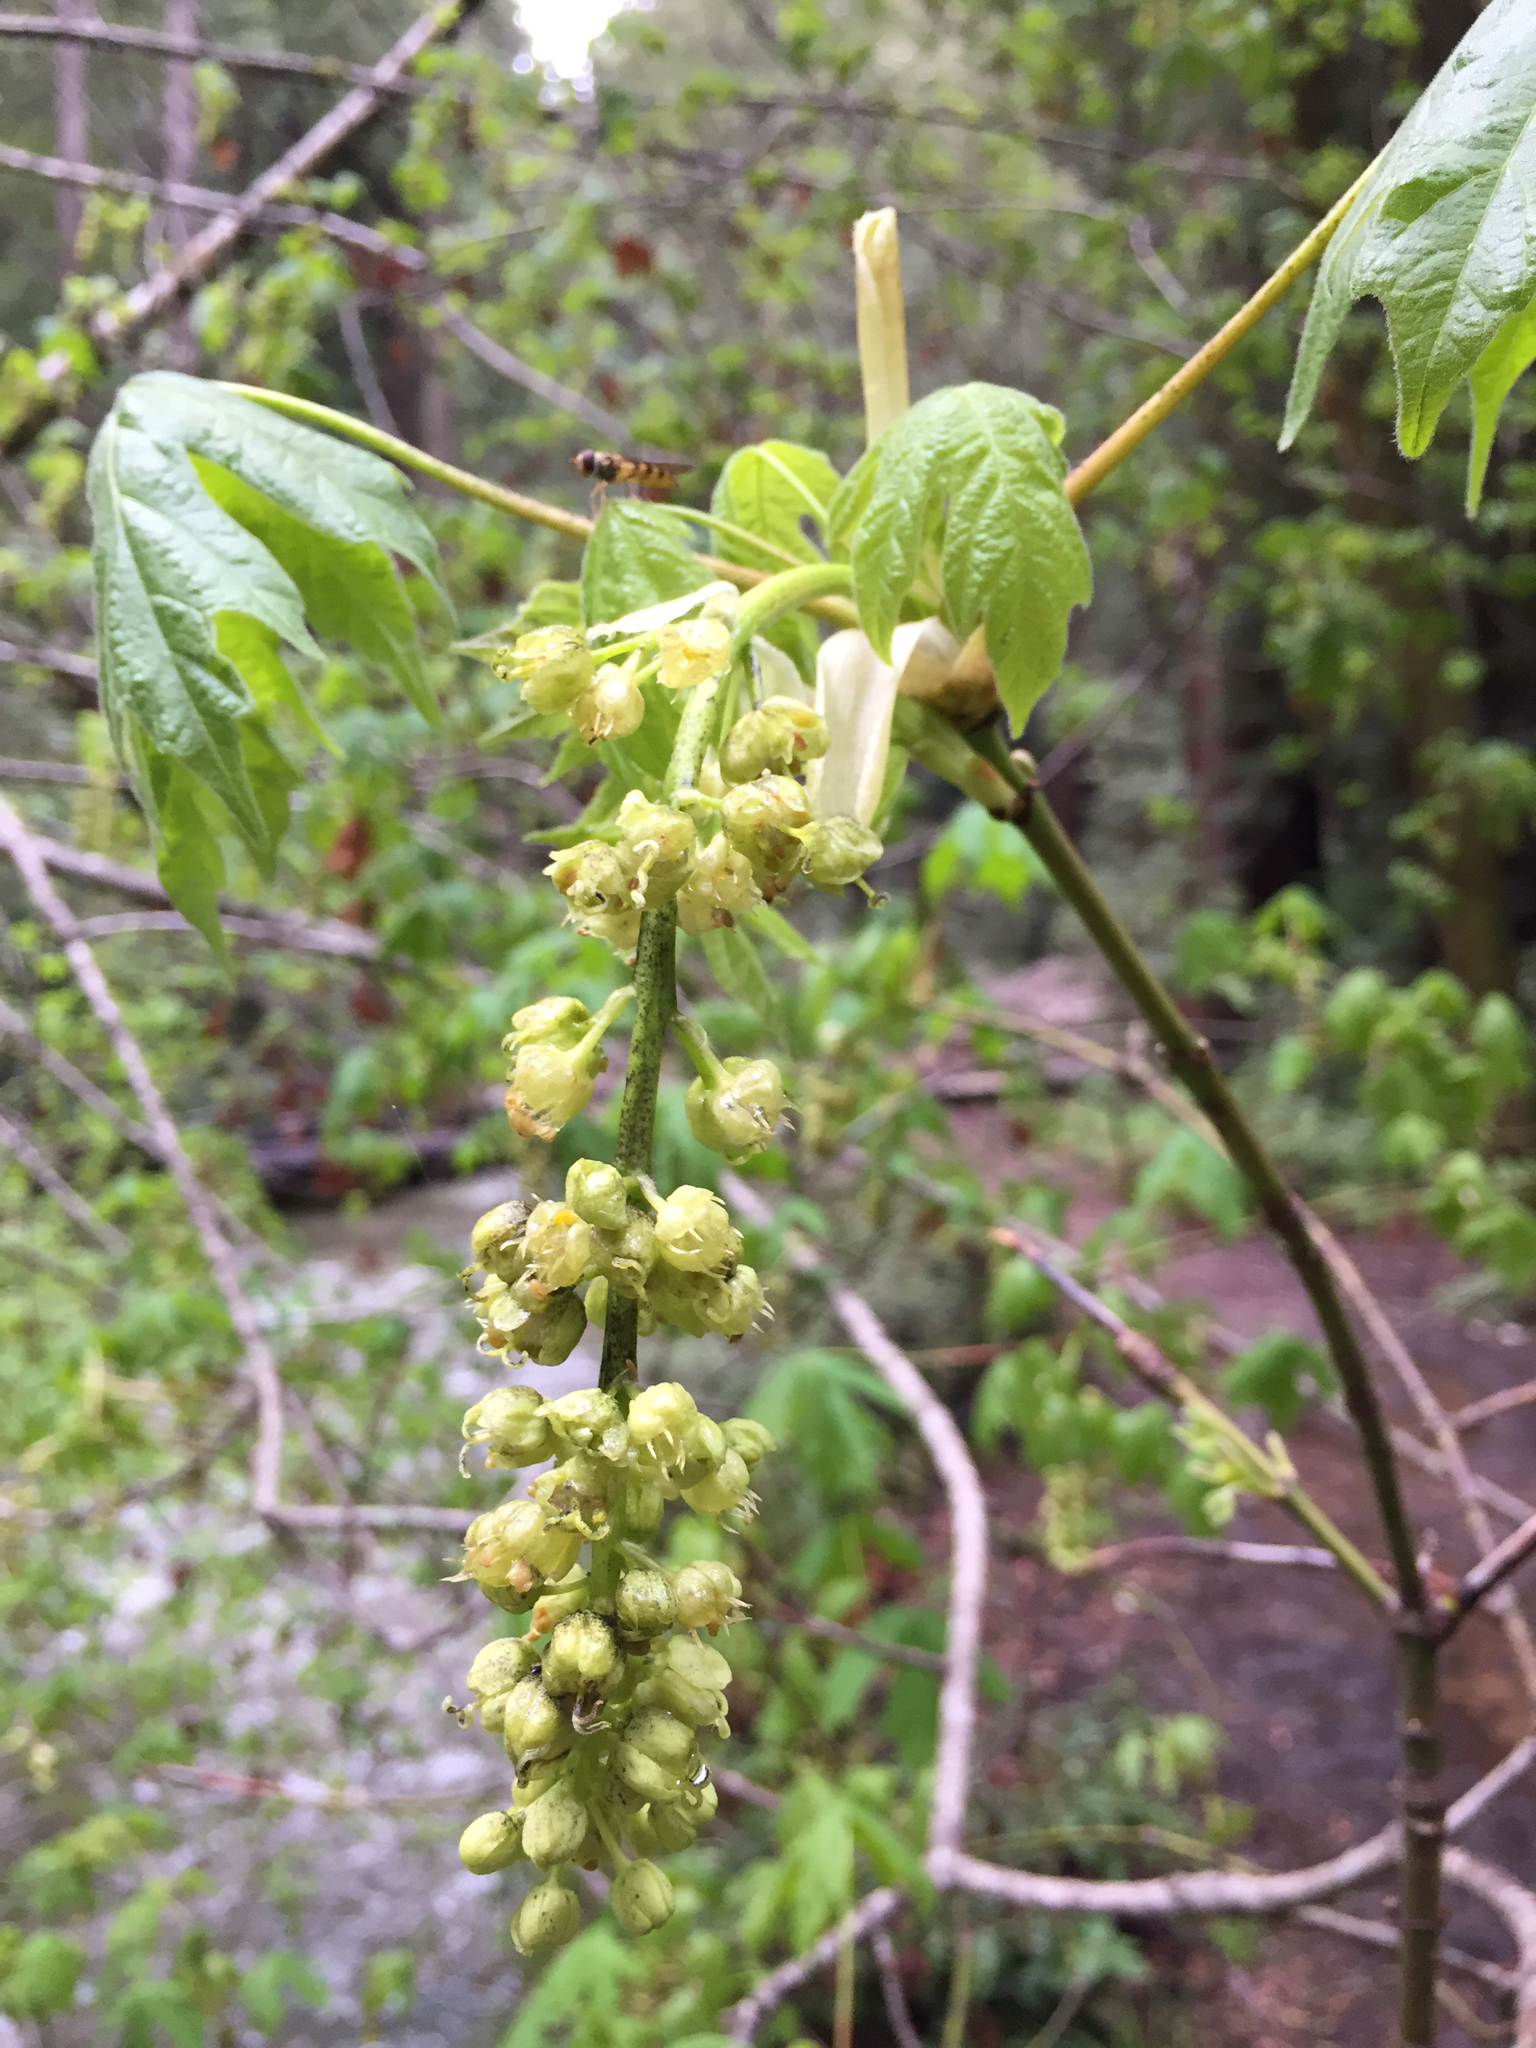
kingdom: Plantae
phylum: Tracheophyta
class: Magnoliopsida
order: Sapindales
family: Sapindaceae
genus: Acer
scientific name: Acer macrophyllum
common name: Oregon maple
